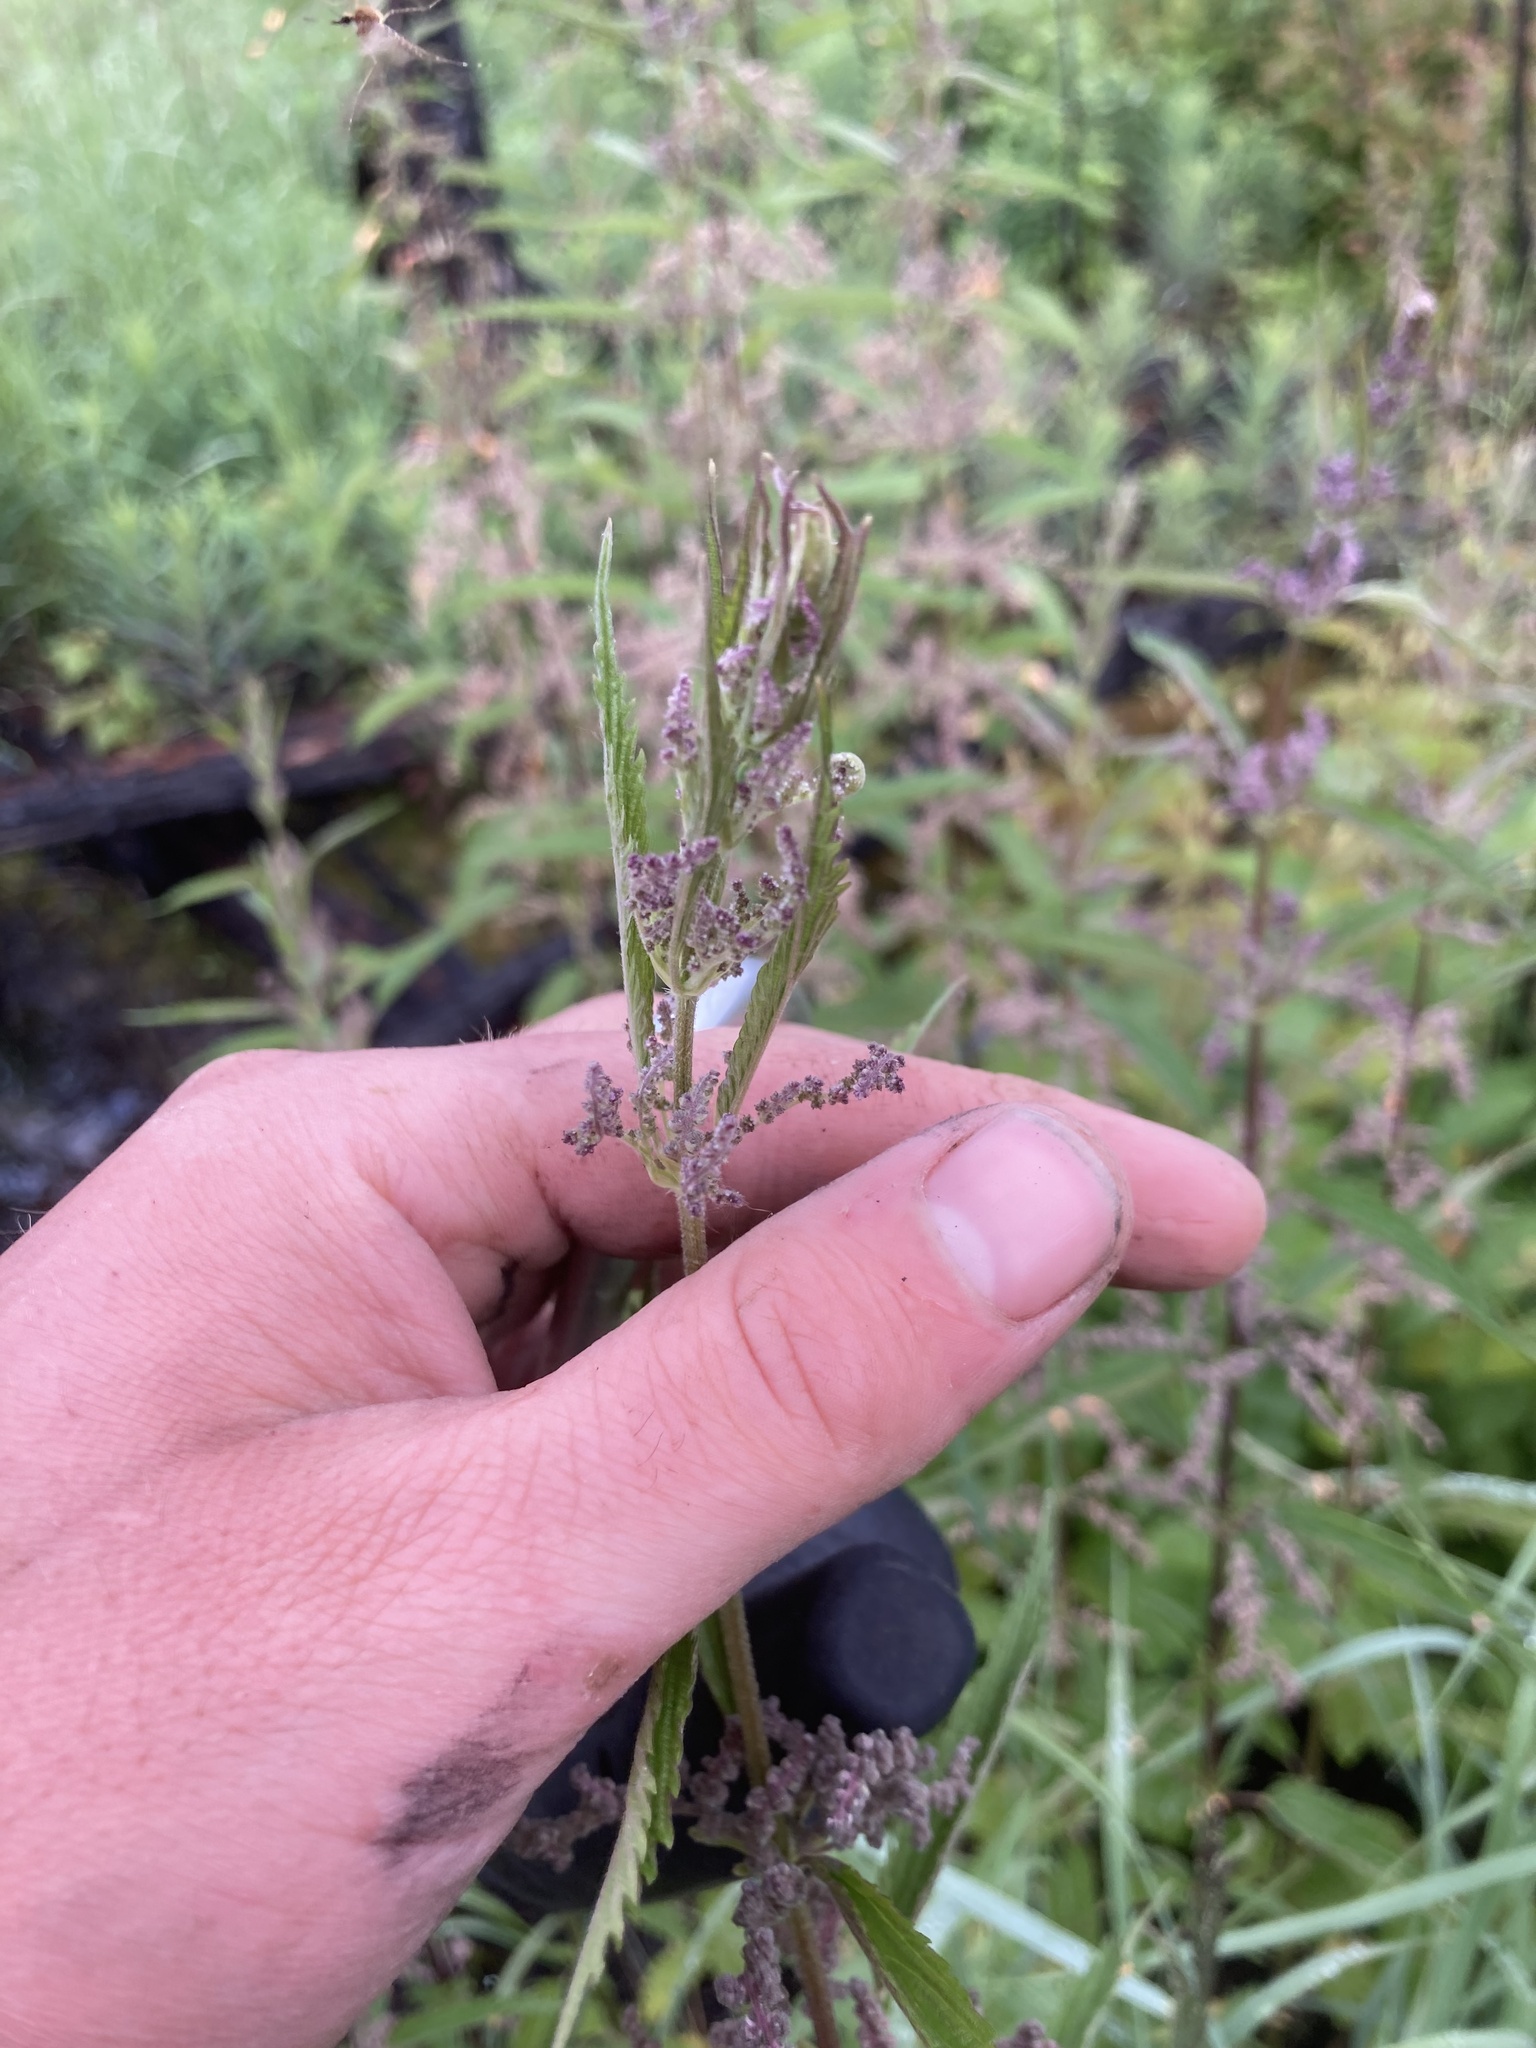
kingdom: Plantae
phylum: Tracheophyta
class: Magnoliopsida
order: Rosales
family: Urticaceae
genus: Urtica
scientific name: Urtica gracilis
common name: Slender stinging nettle
